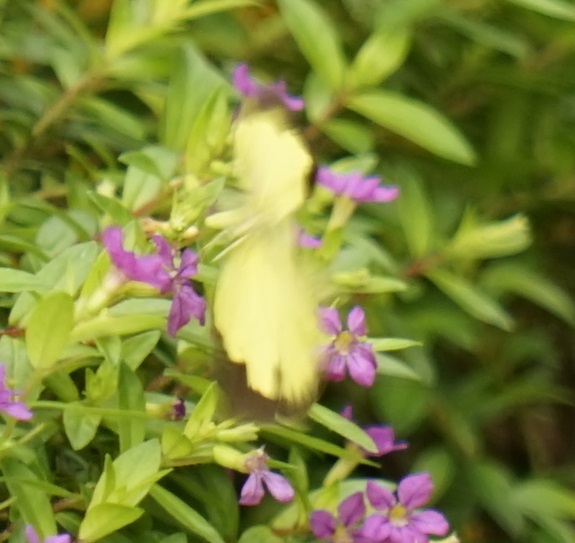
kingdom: Animalia
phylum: Arthropoda
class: Insecta
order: Lepidoptera
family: Pieridae
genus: Eurema
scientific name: Eurema hecabe
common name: Pale grass yellow
